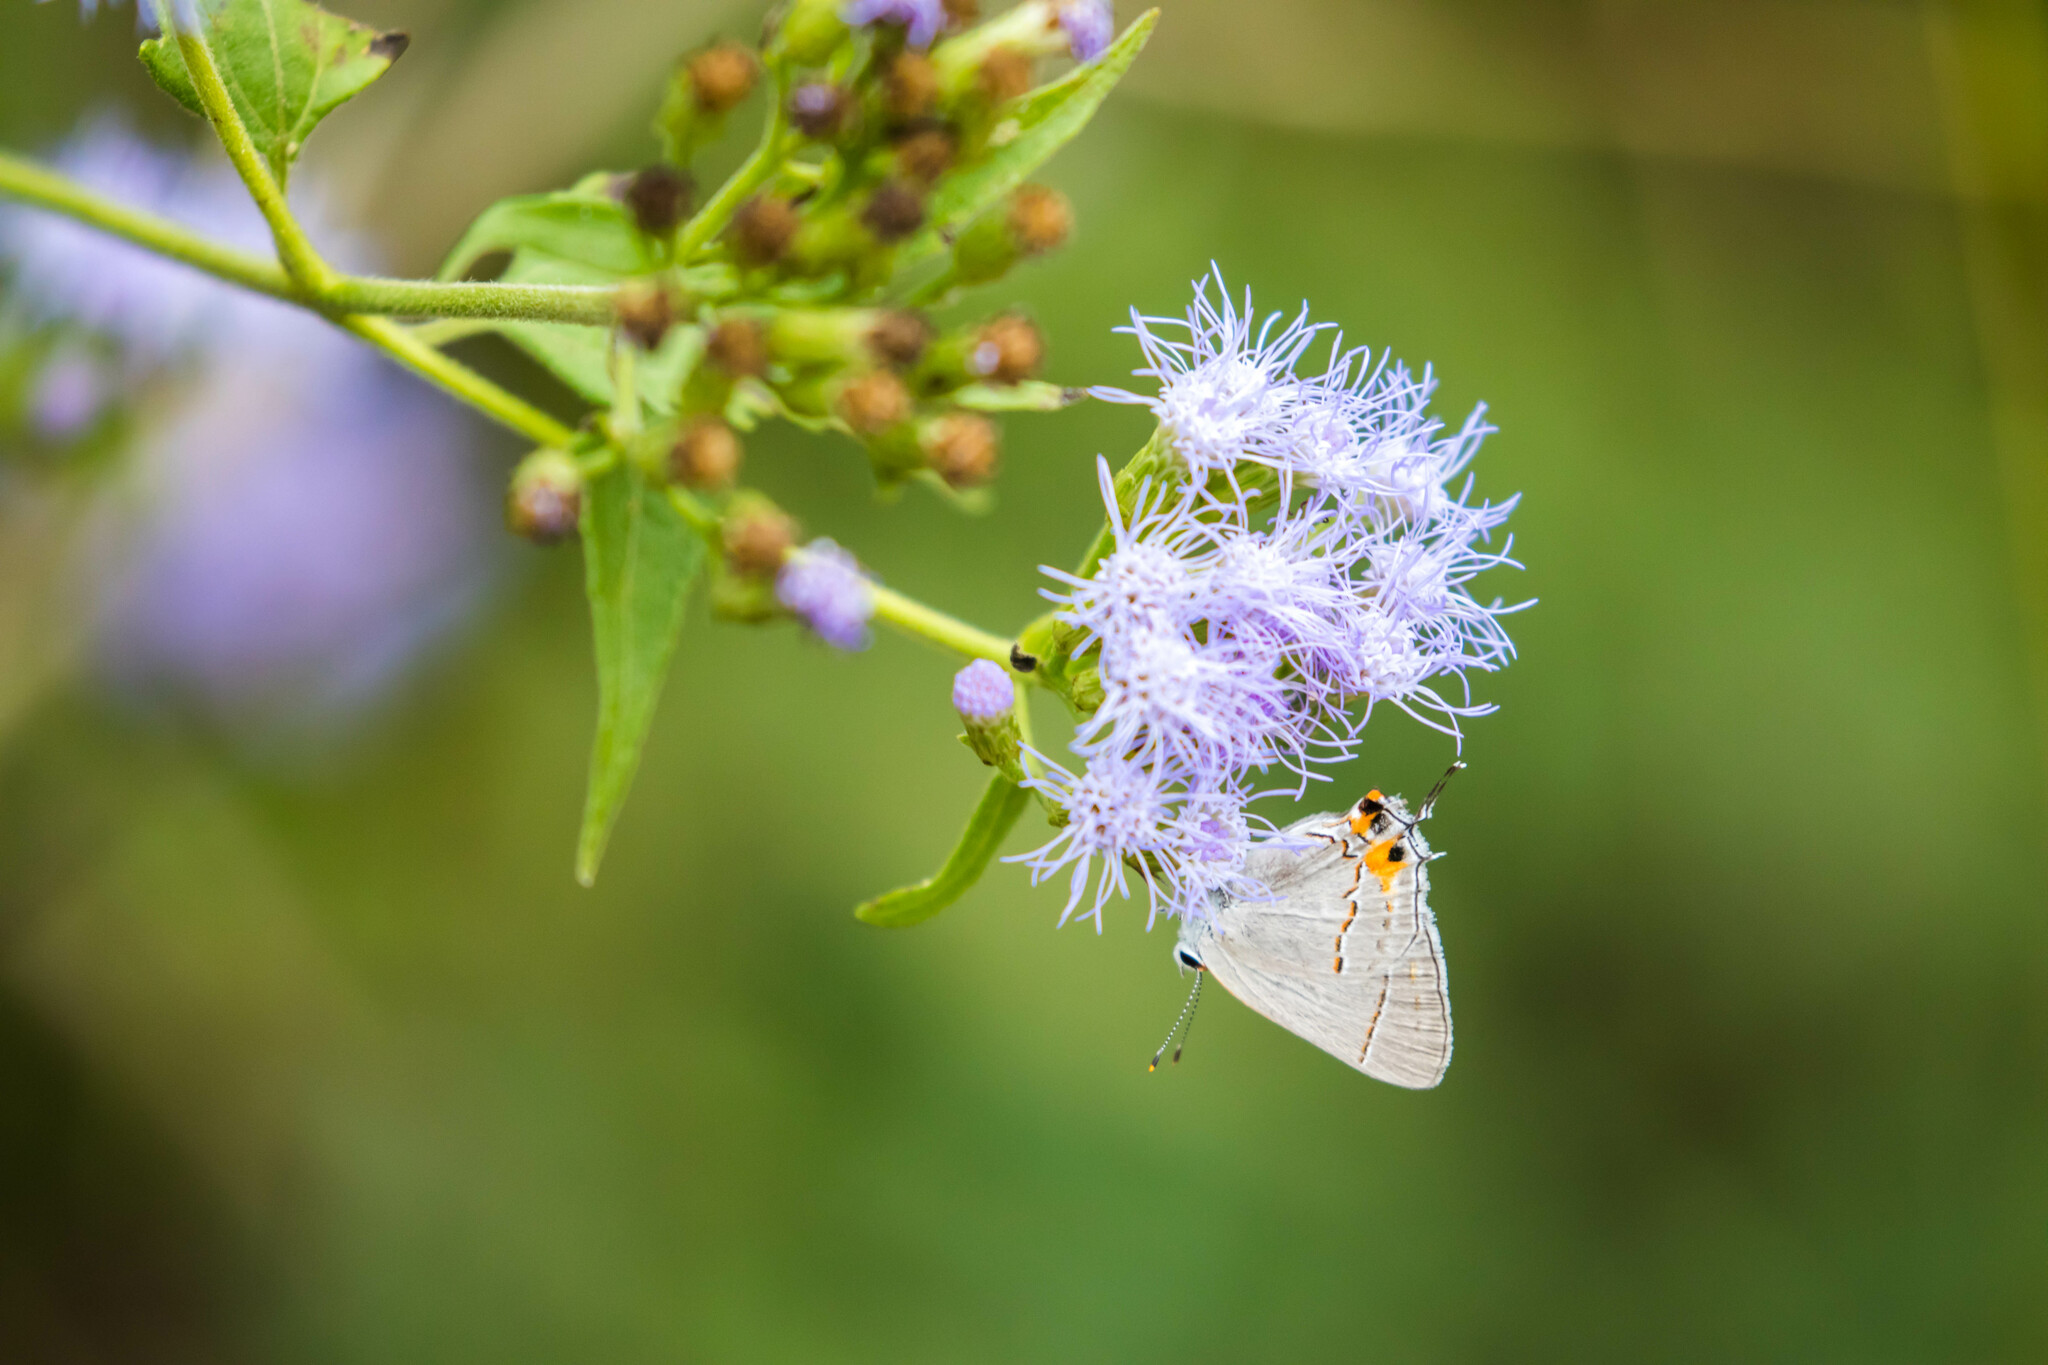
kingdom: Animalia
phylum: Arthropoda
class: Insecta
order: Lepidoptera
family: Lycaenidae
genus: Strymon
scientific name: Strymon melinus
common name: Gray hairstreak
